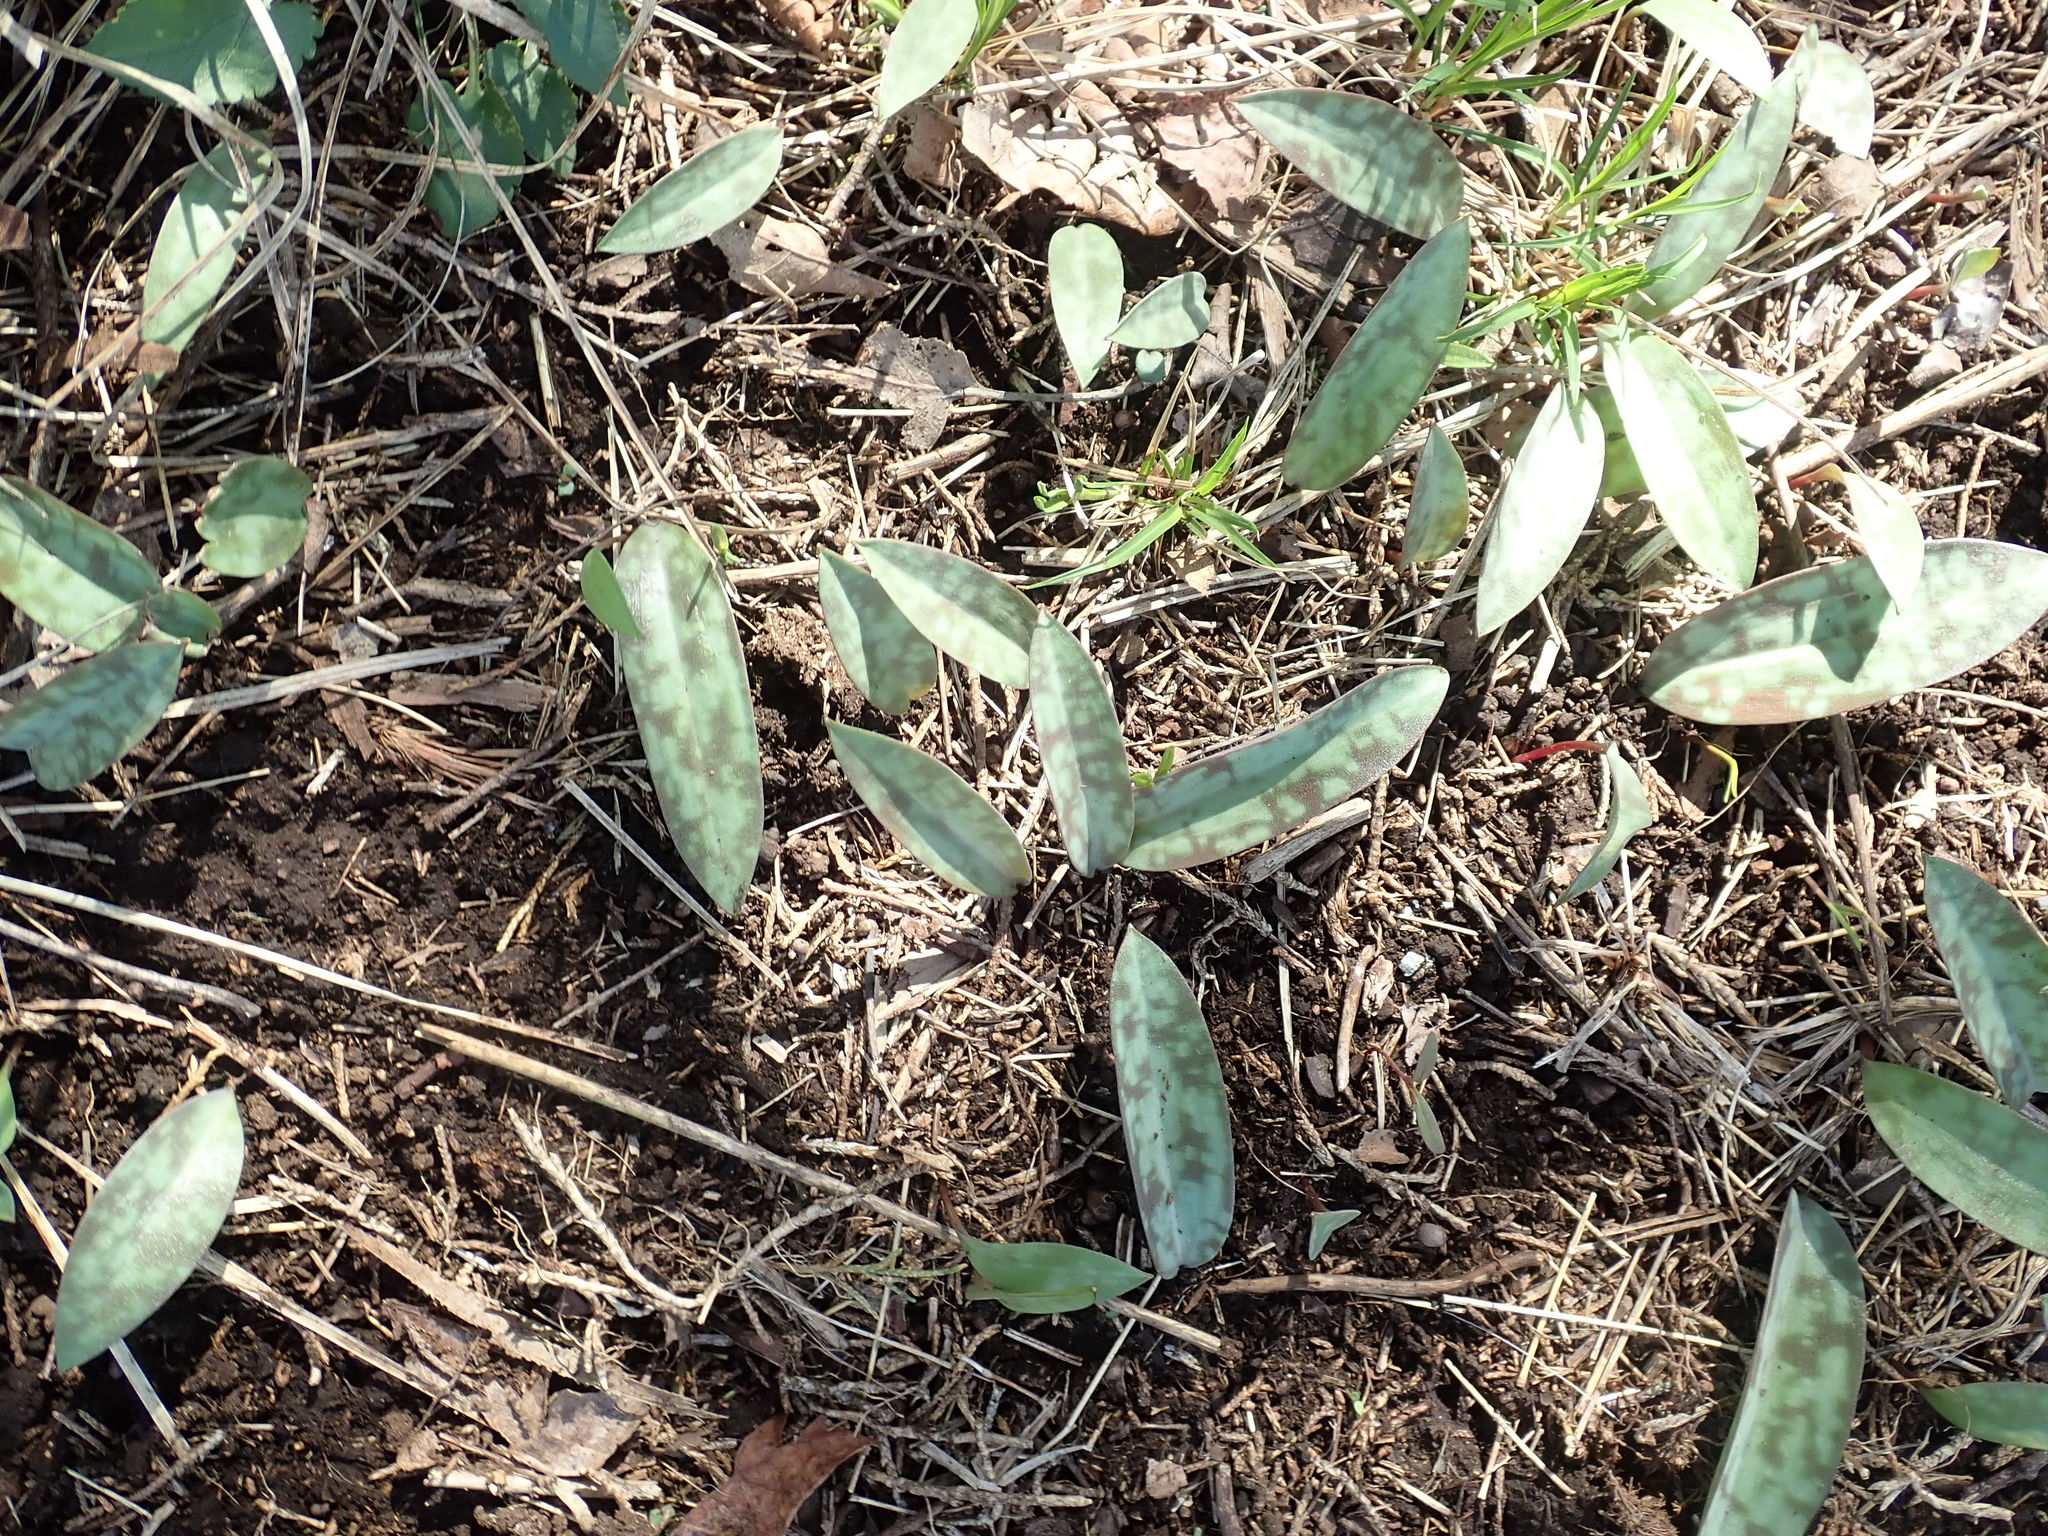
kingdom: Plantae
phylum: Tracheophyta
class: Liliopsida
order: Liliales
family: Liliaceae
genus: Erythronium
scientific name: Erythronium americanum
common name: Yellow adder's-tongue
